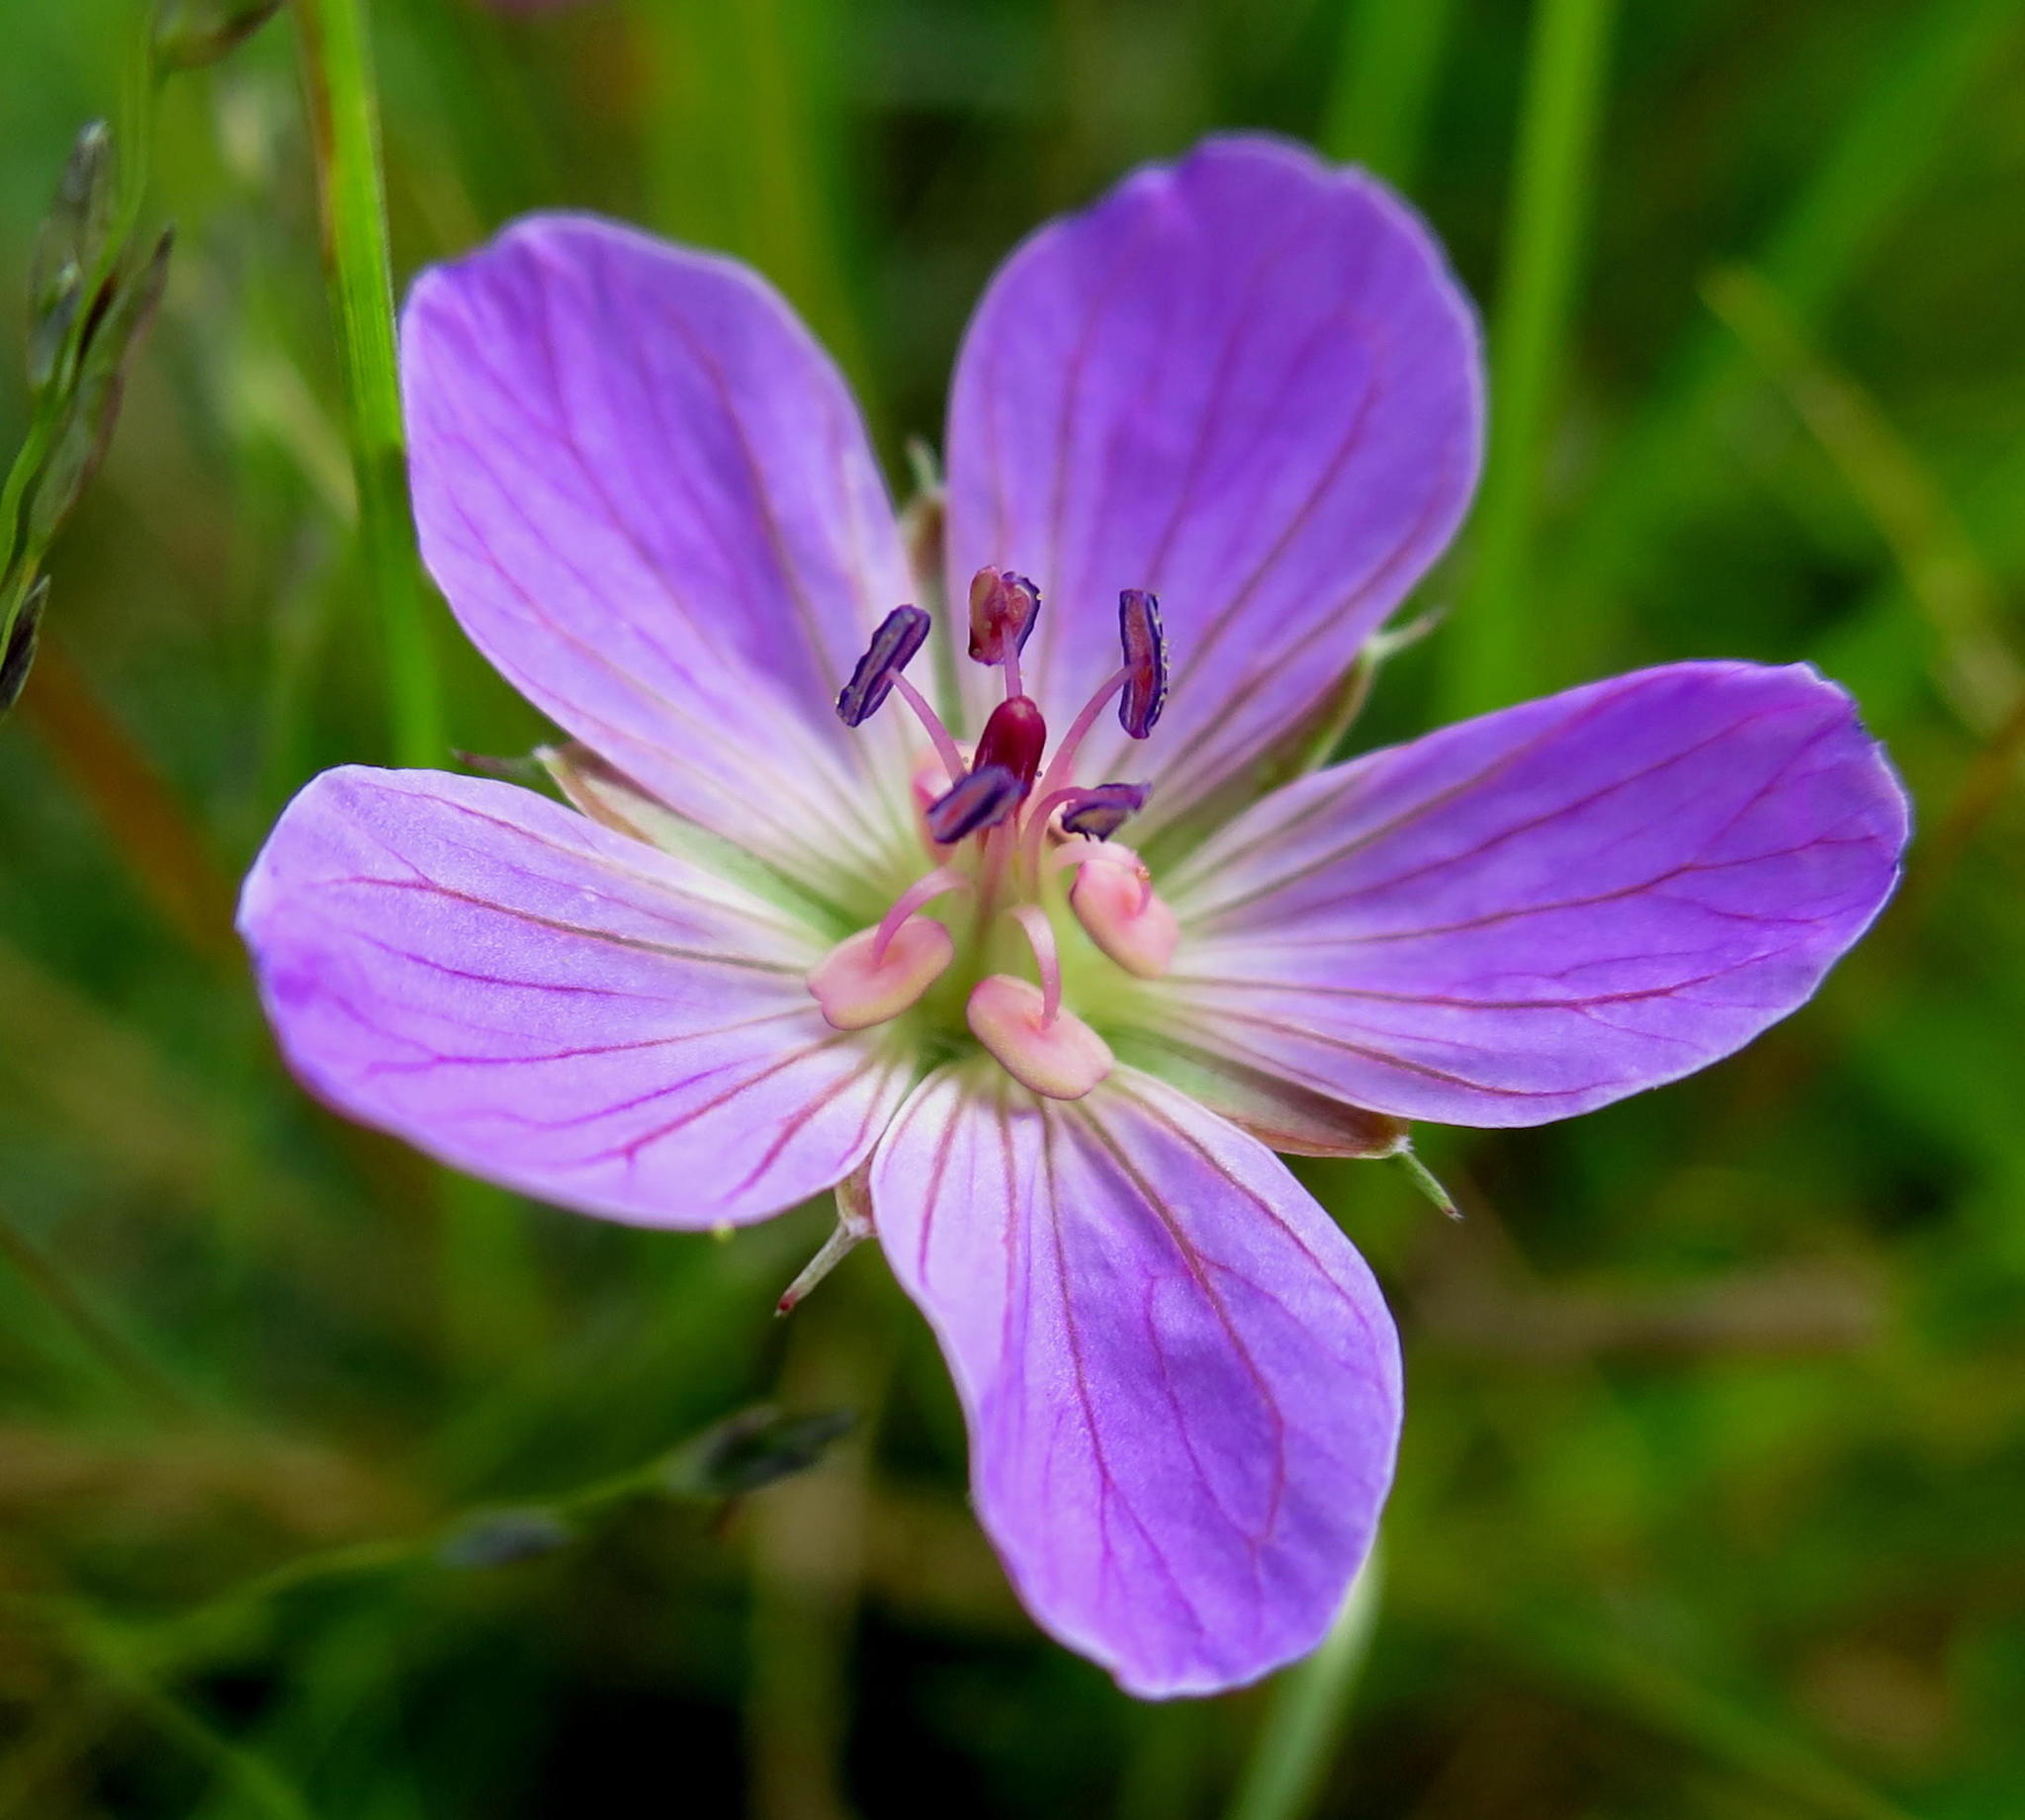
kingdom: Plantae
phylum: Tracheophyta
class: Magnoliopsida
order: Geraniales
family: Geraniaceae
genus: Geranium
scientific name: Geranium incanum
